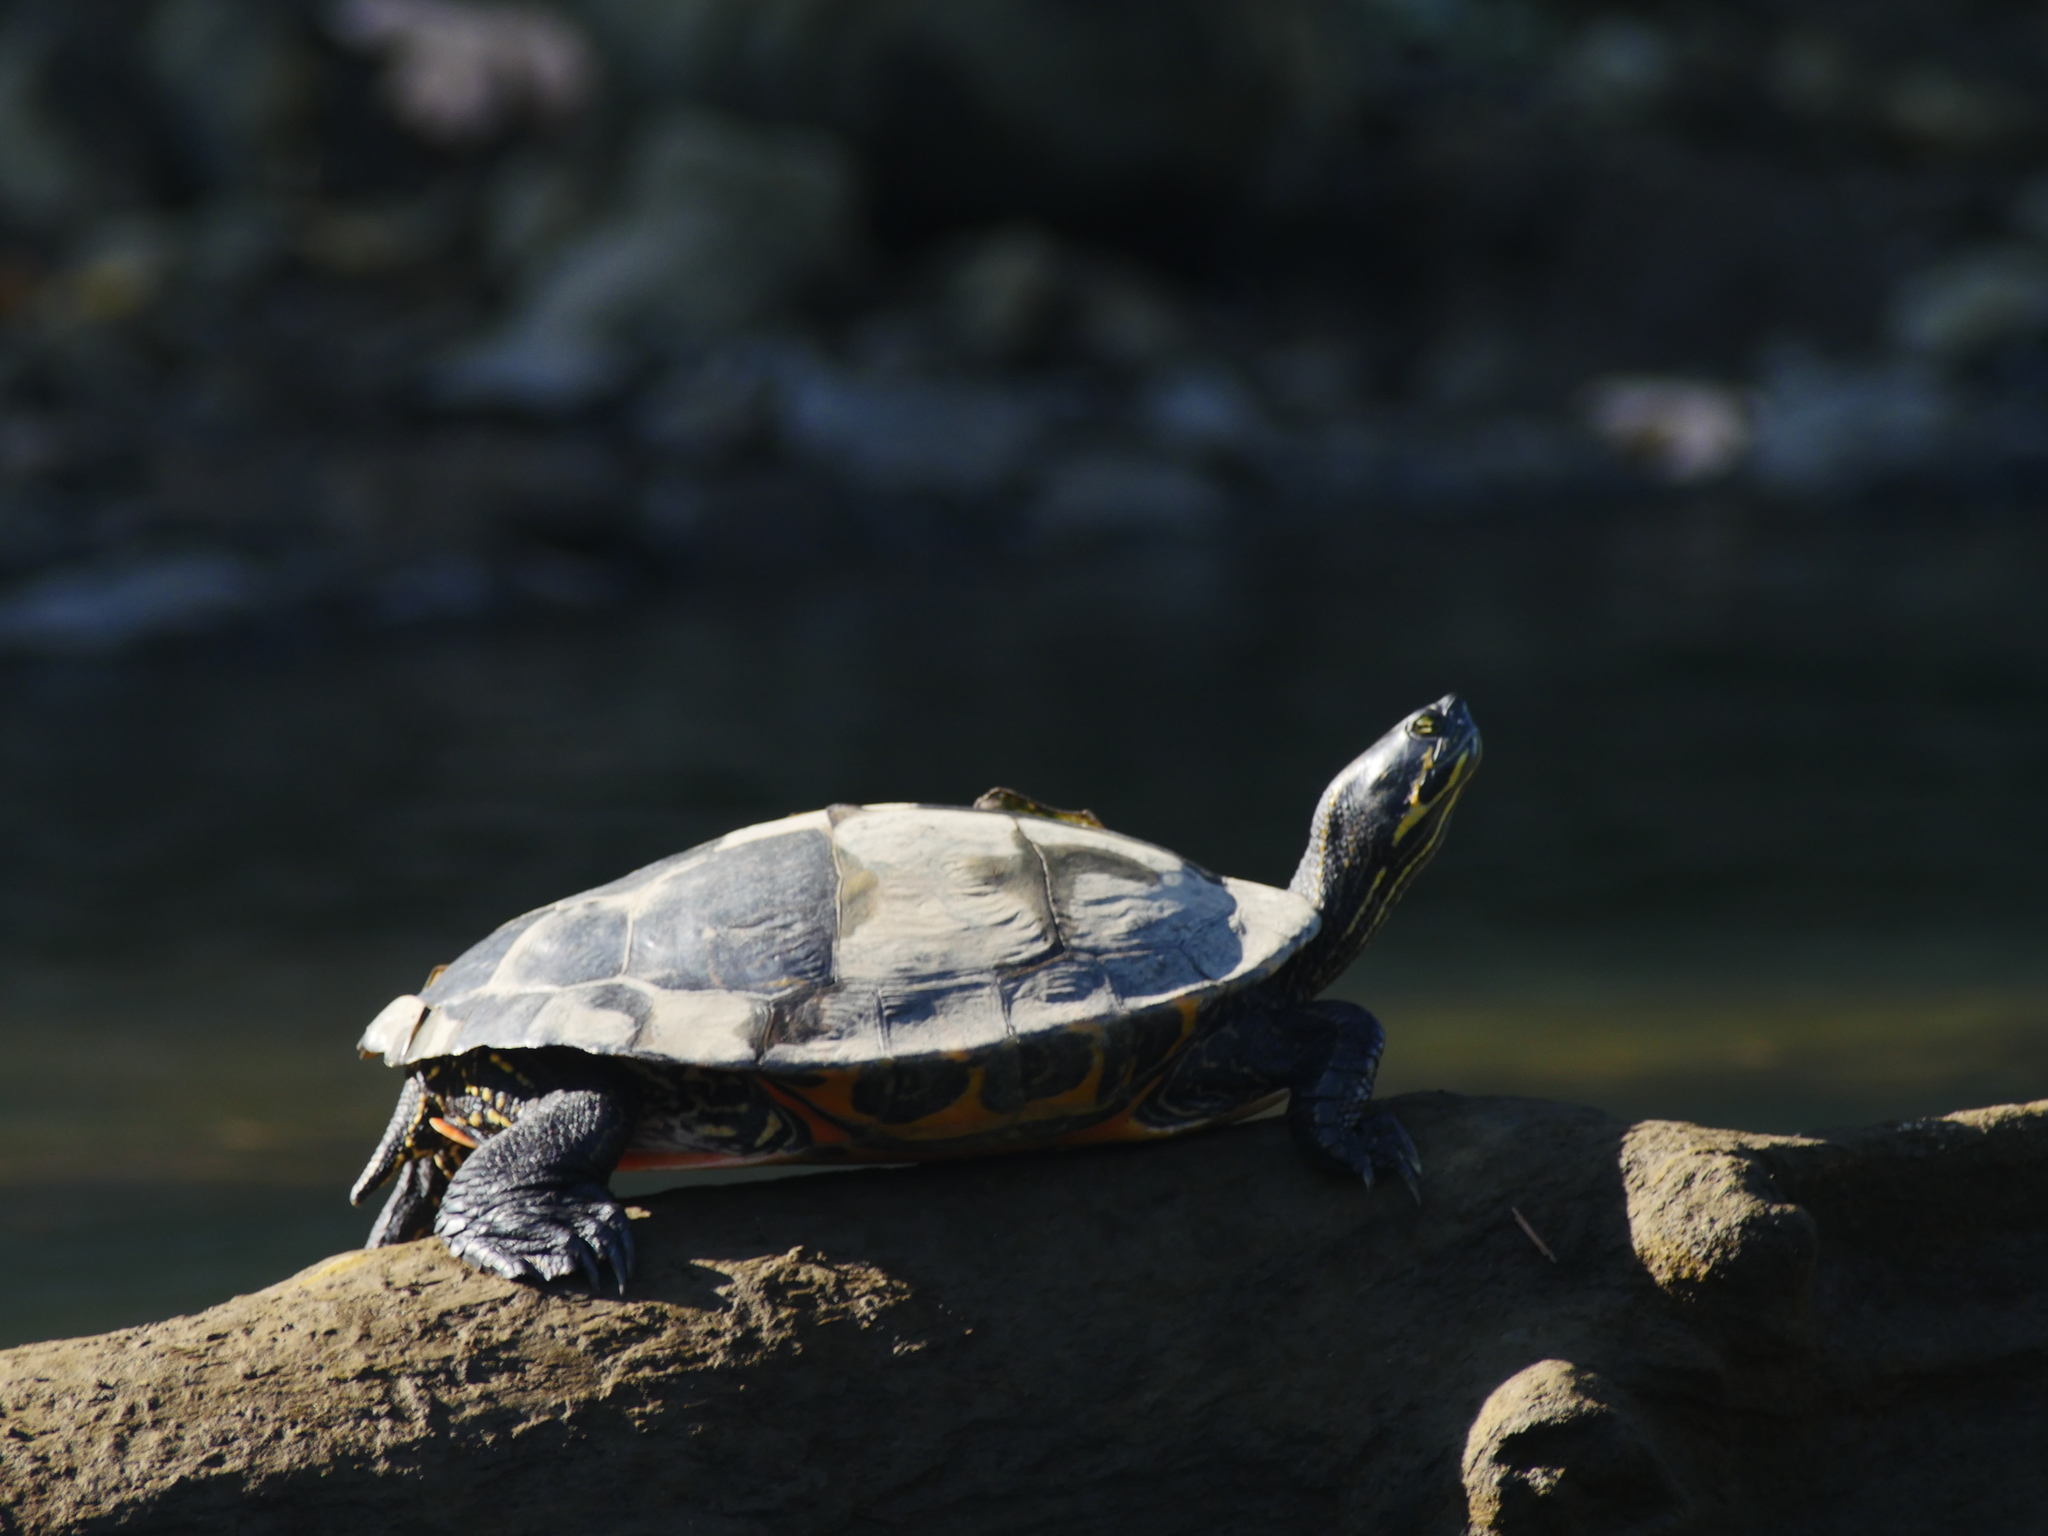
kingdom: Animalia
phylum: Chordata
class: Testudines
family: Emydidae
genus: Pseudemys
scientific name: Pseudemys
